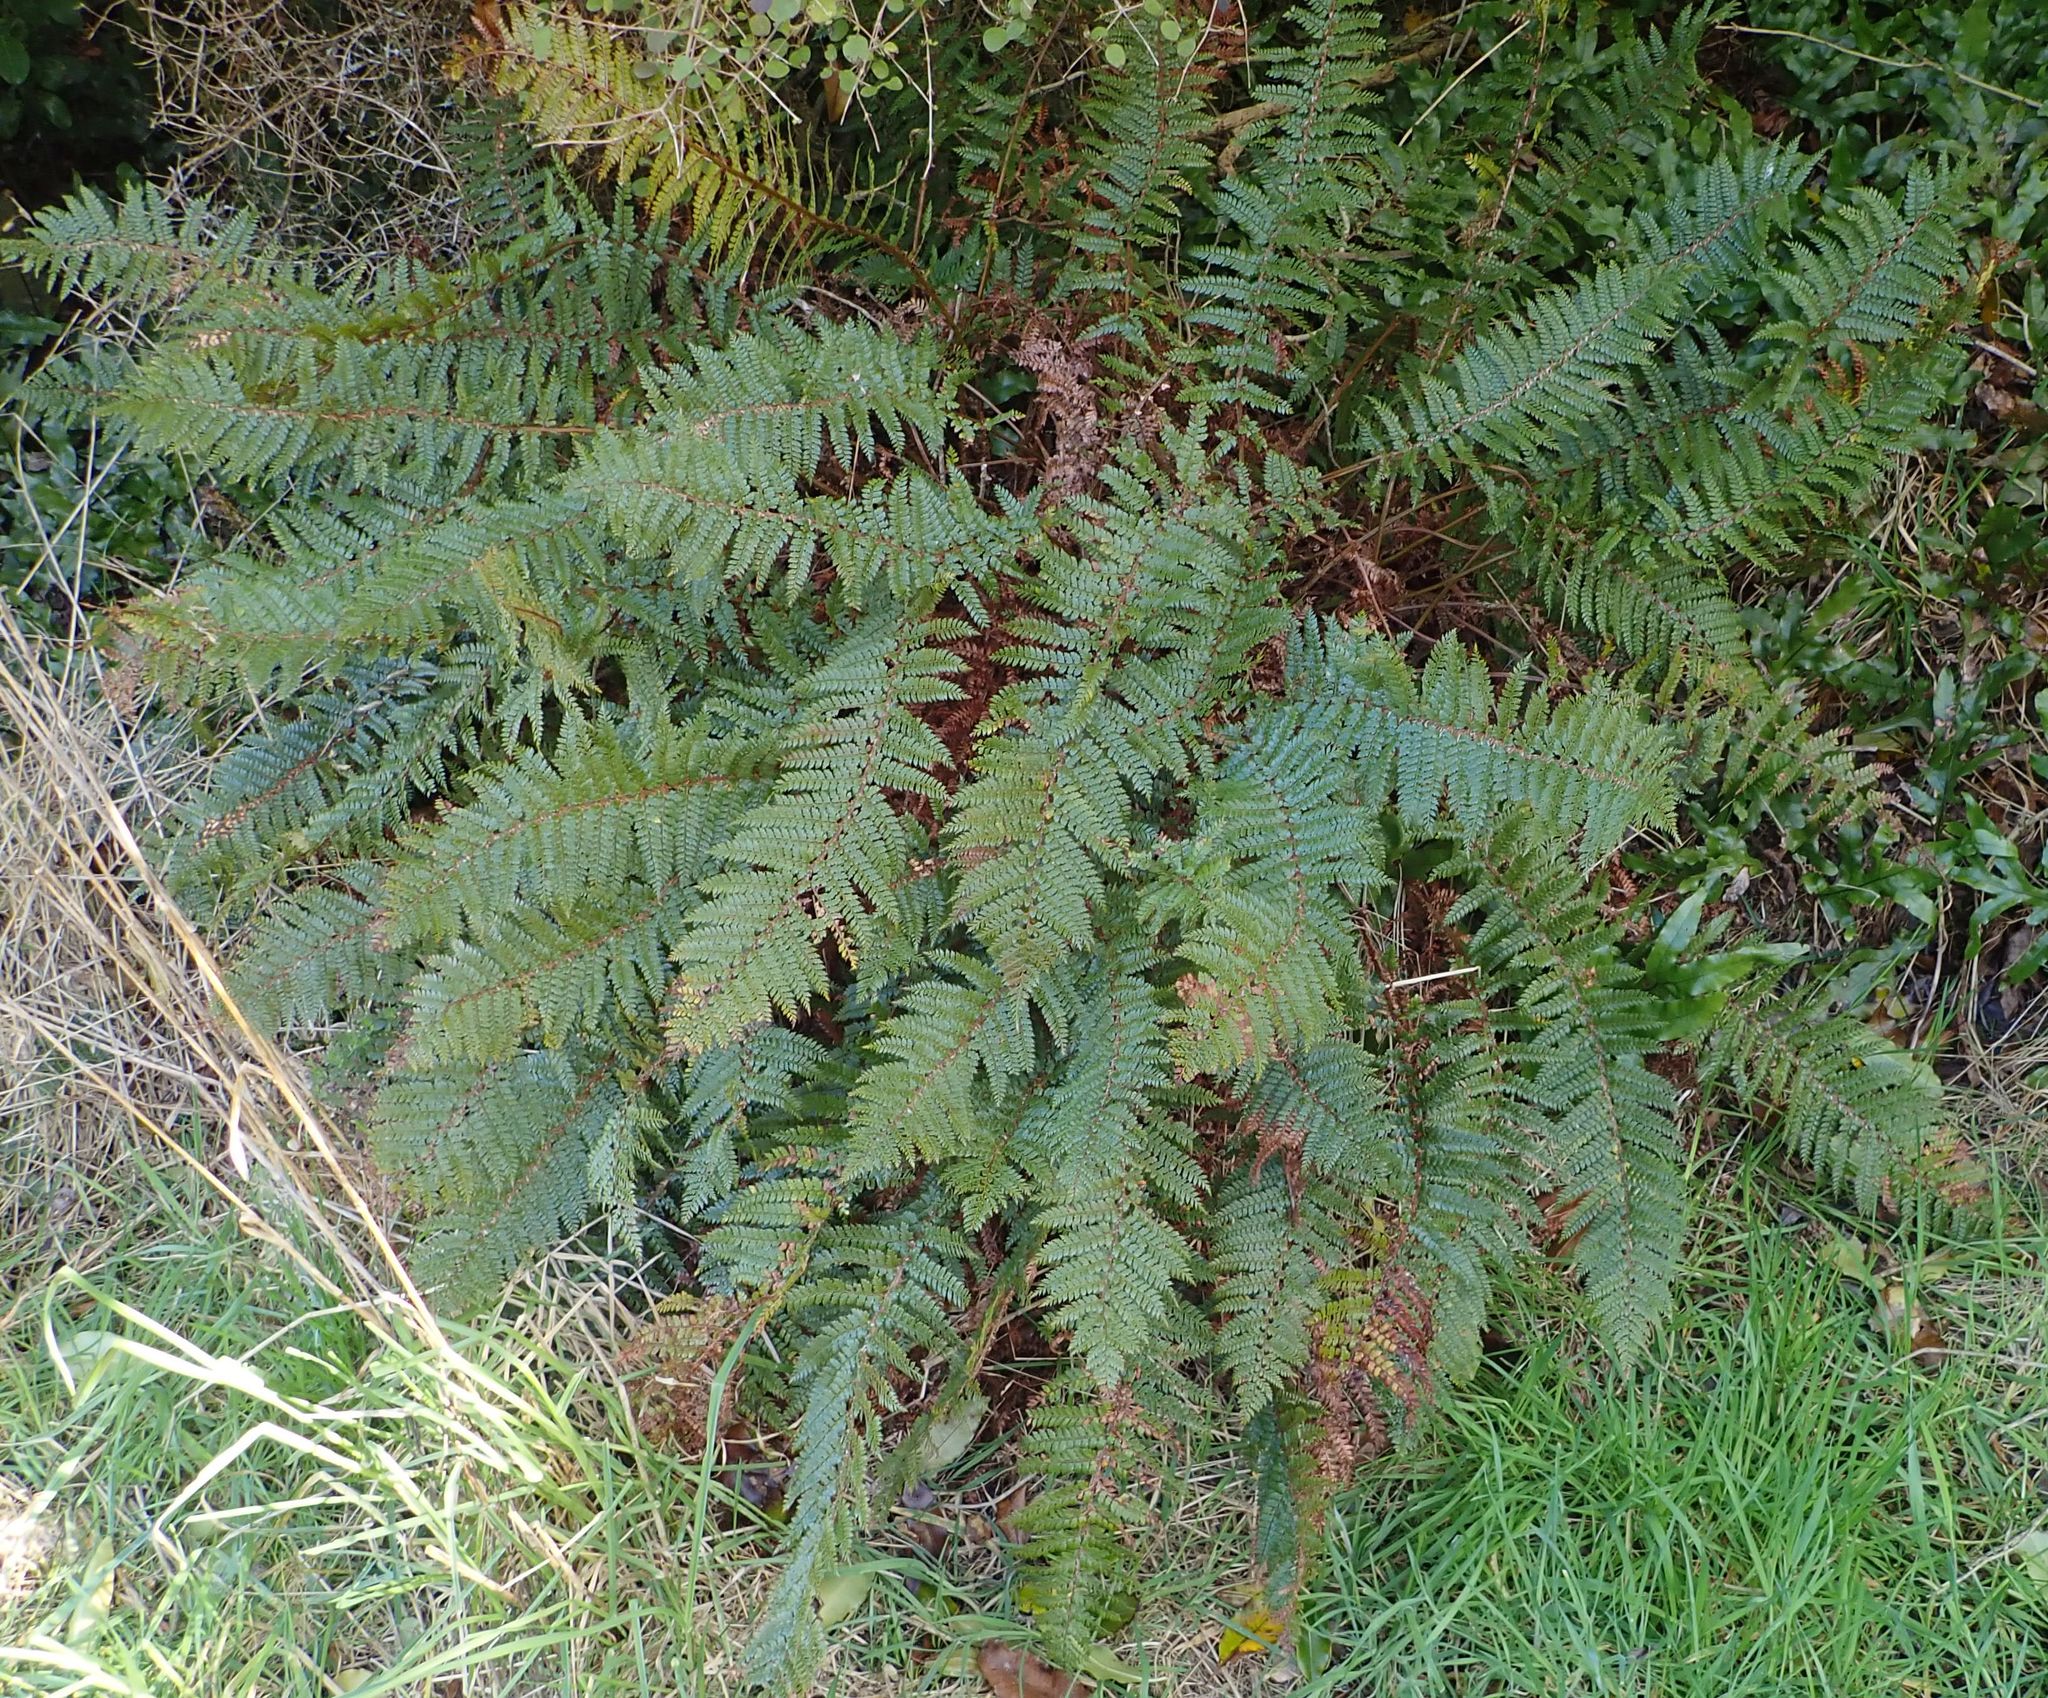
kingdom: Plantae
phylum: Tracheophyta
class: Polypodiopsida
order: Polypodiales
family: Dryopteridaceae
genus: Polystichum
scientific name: Polystichum vestitum
